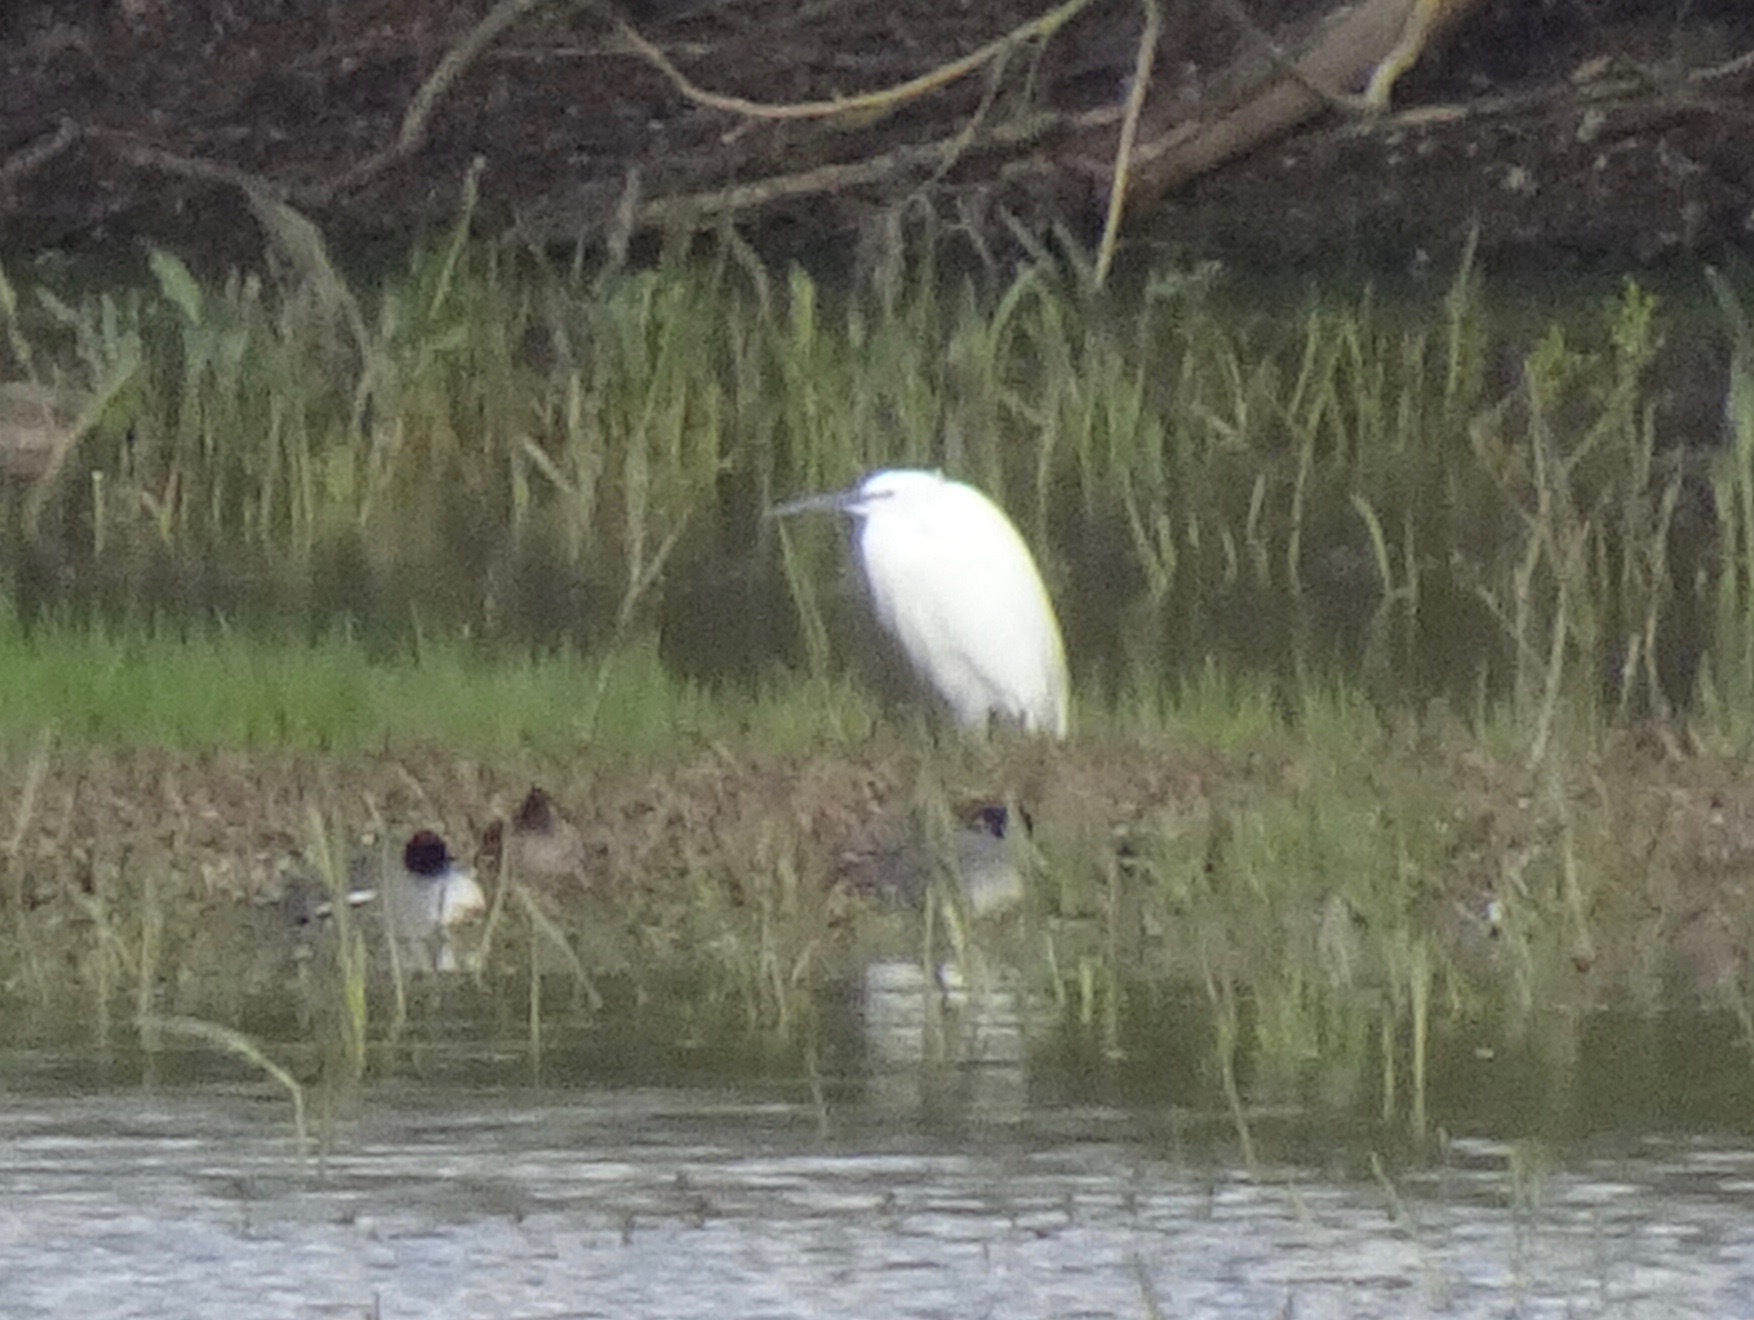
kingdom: Animalia
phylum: Chordata
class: Aves
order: Pelecaniformes
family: Ardeidae
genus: Egretta
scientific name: Egretta garzetta
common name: Little egret
